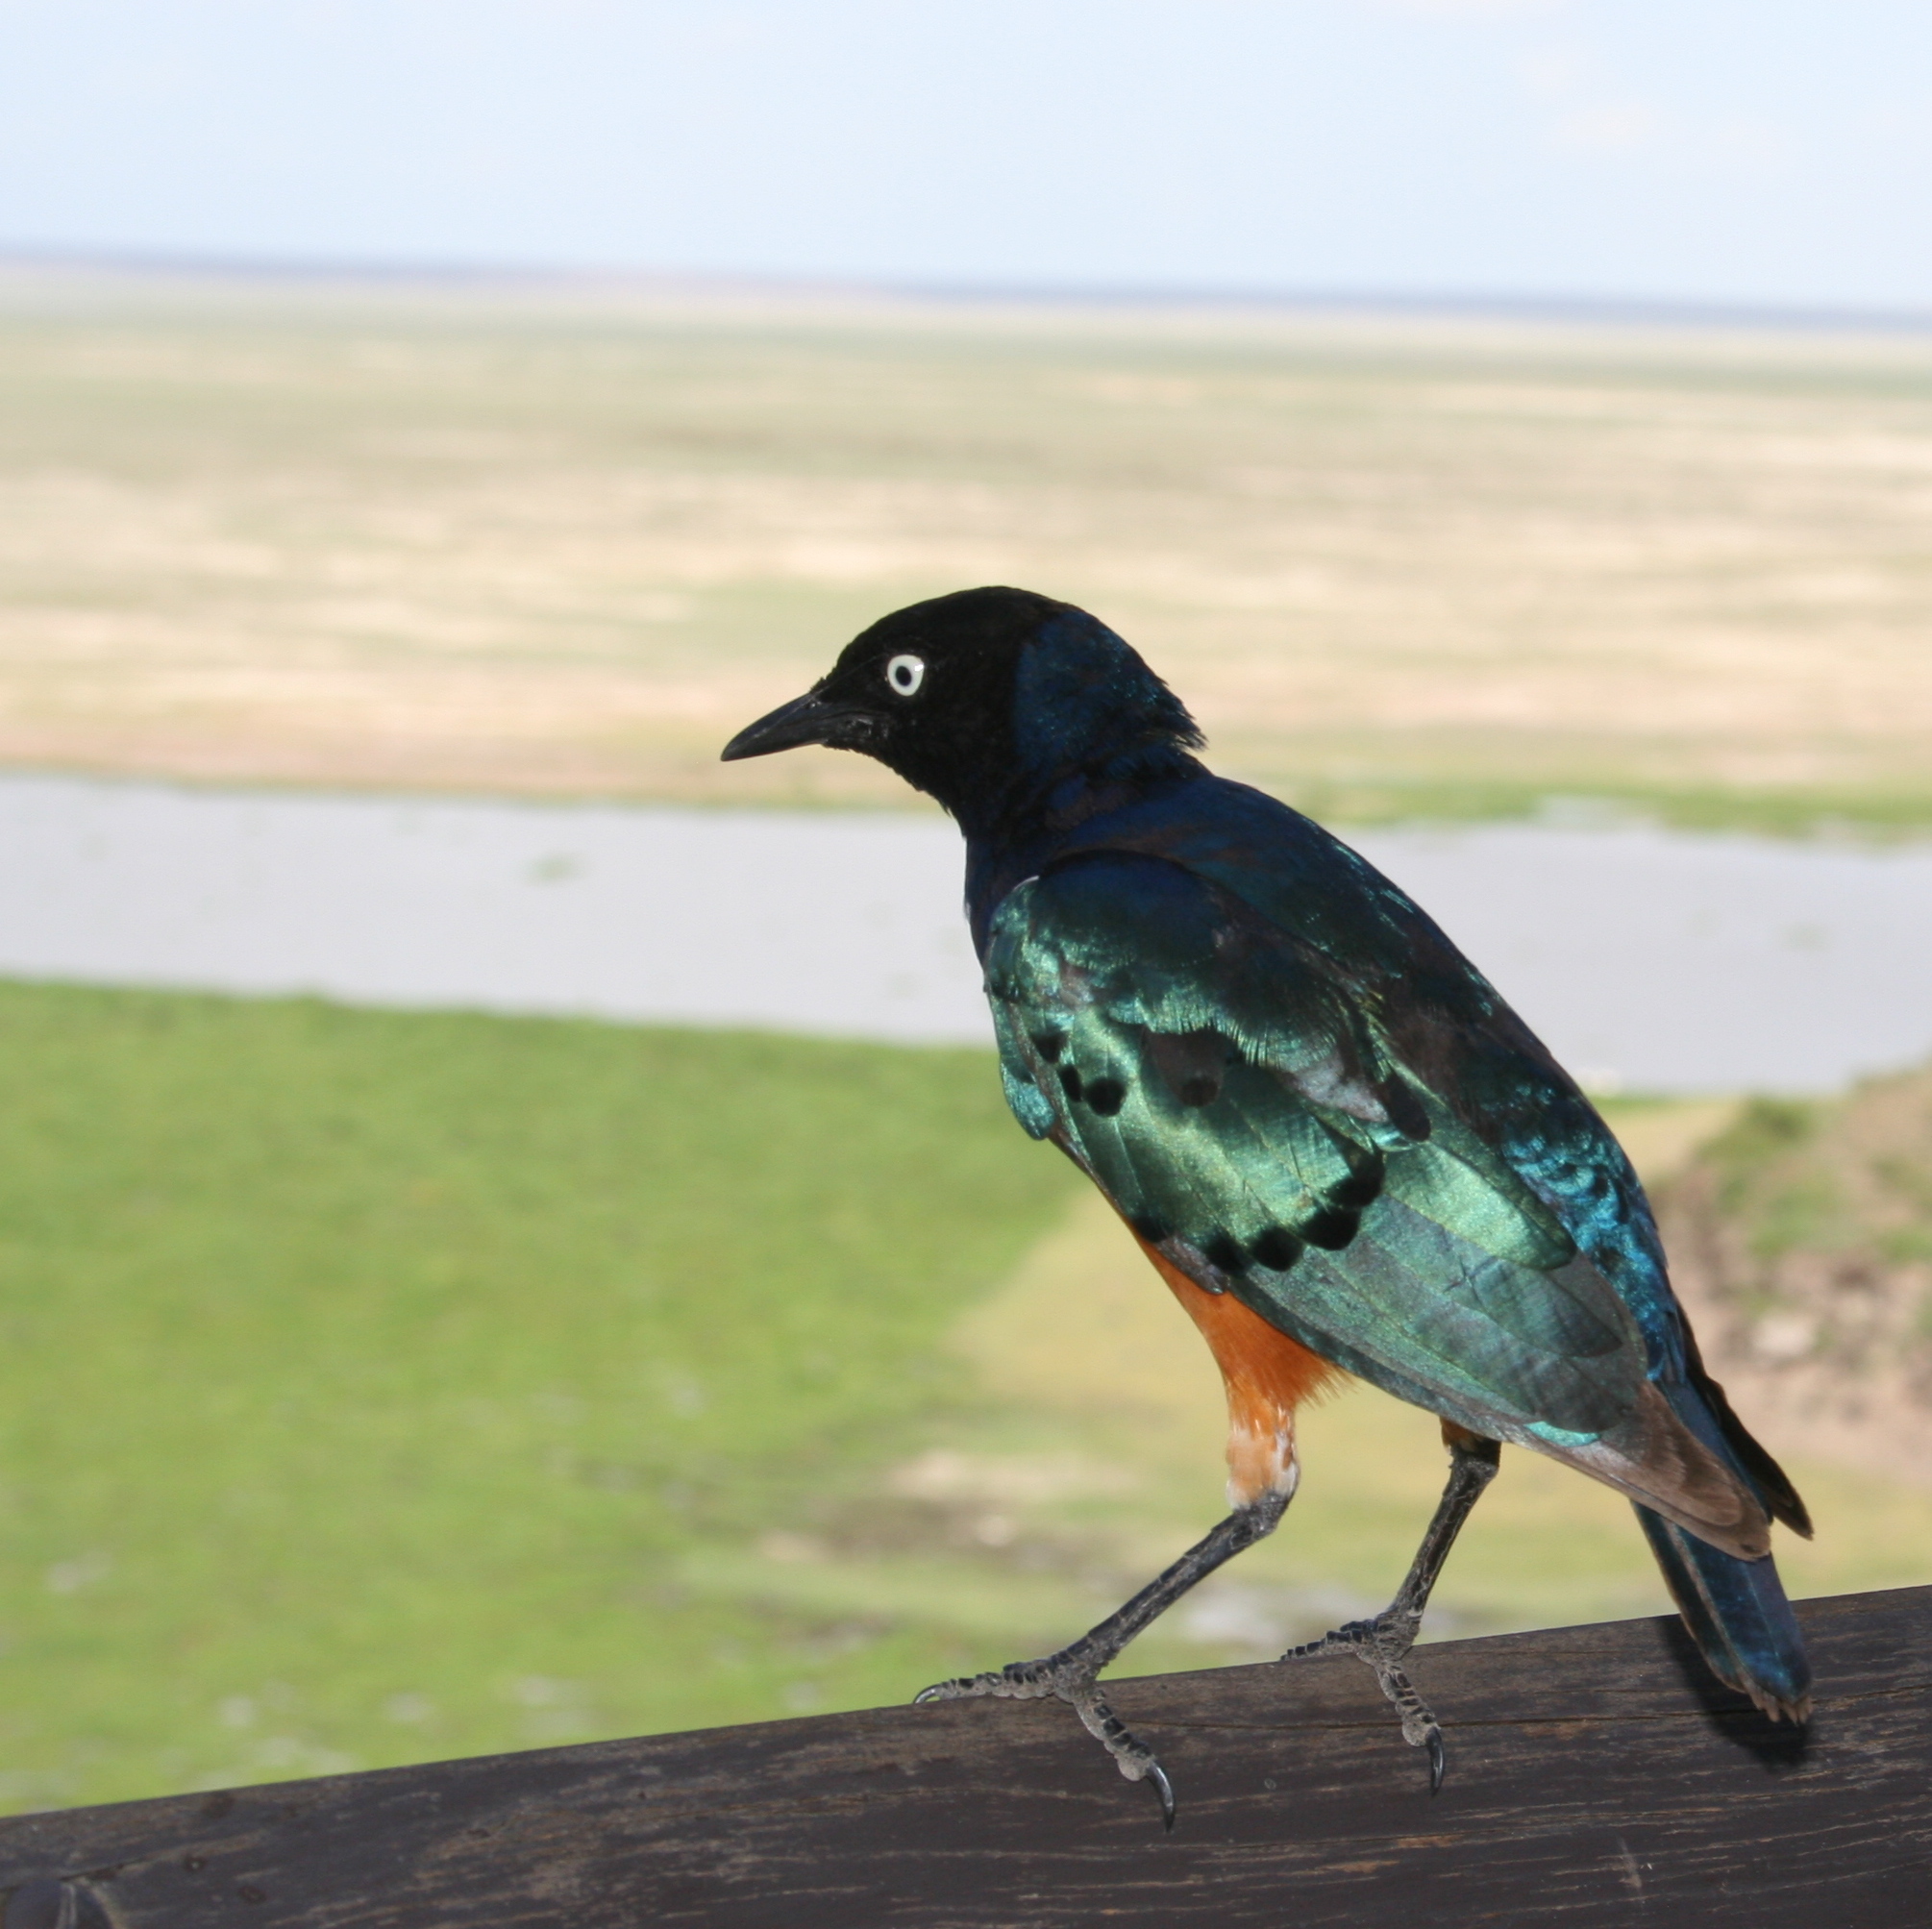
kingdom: Animalia
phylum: Chordata
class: Aves
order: Passeriformes
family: Sturnidae
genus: Lamprotornis
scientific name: Lamprotornis superbus
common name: Superb starling
